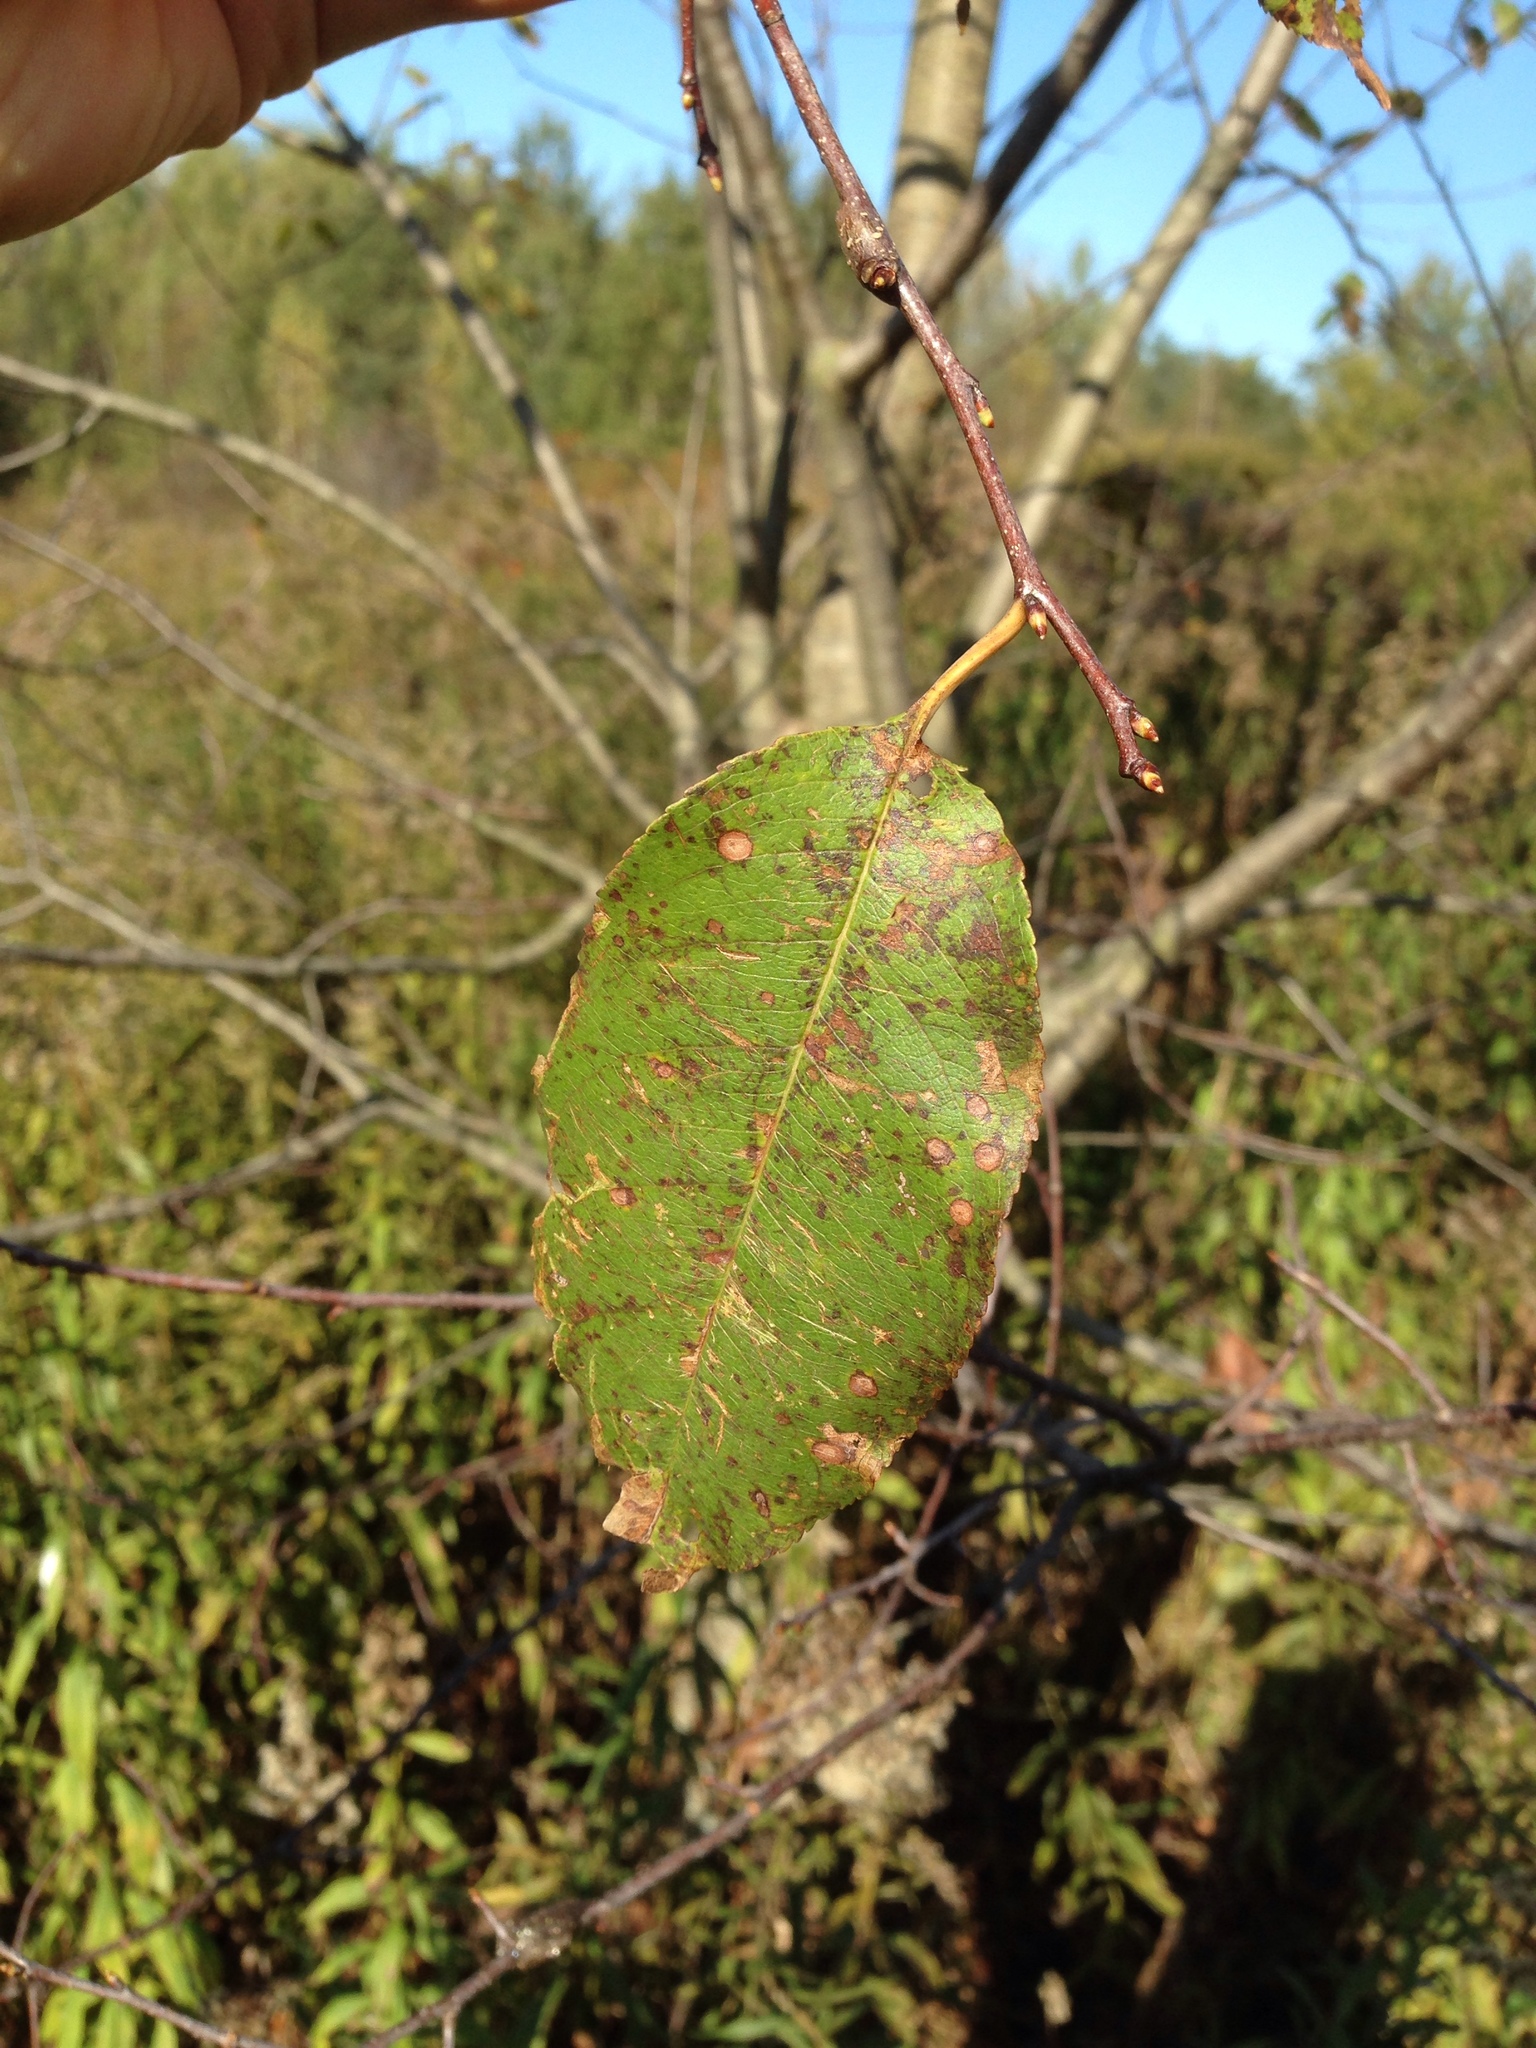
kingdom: Plantae
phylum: Tracheophyta
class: Magnoliopsida
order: Rosales
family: Rosaceae
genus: Prunus
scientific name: Prunus serotina
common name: Black cherry
